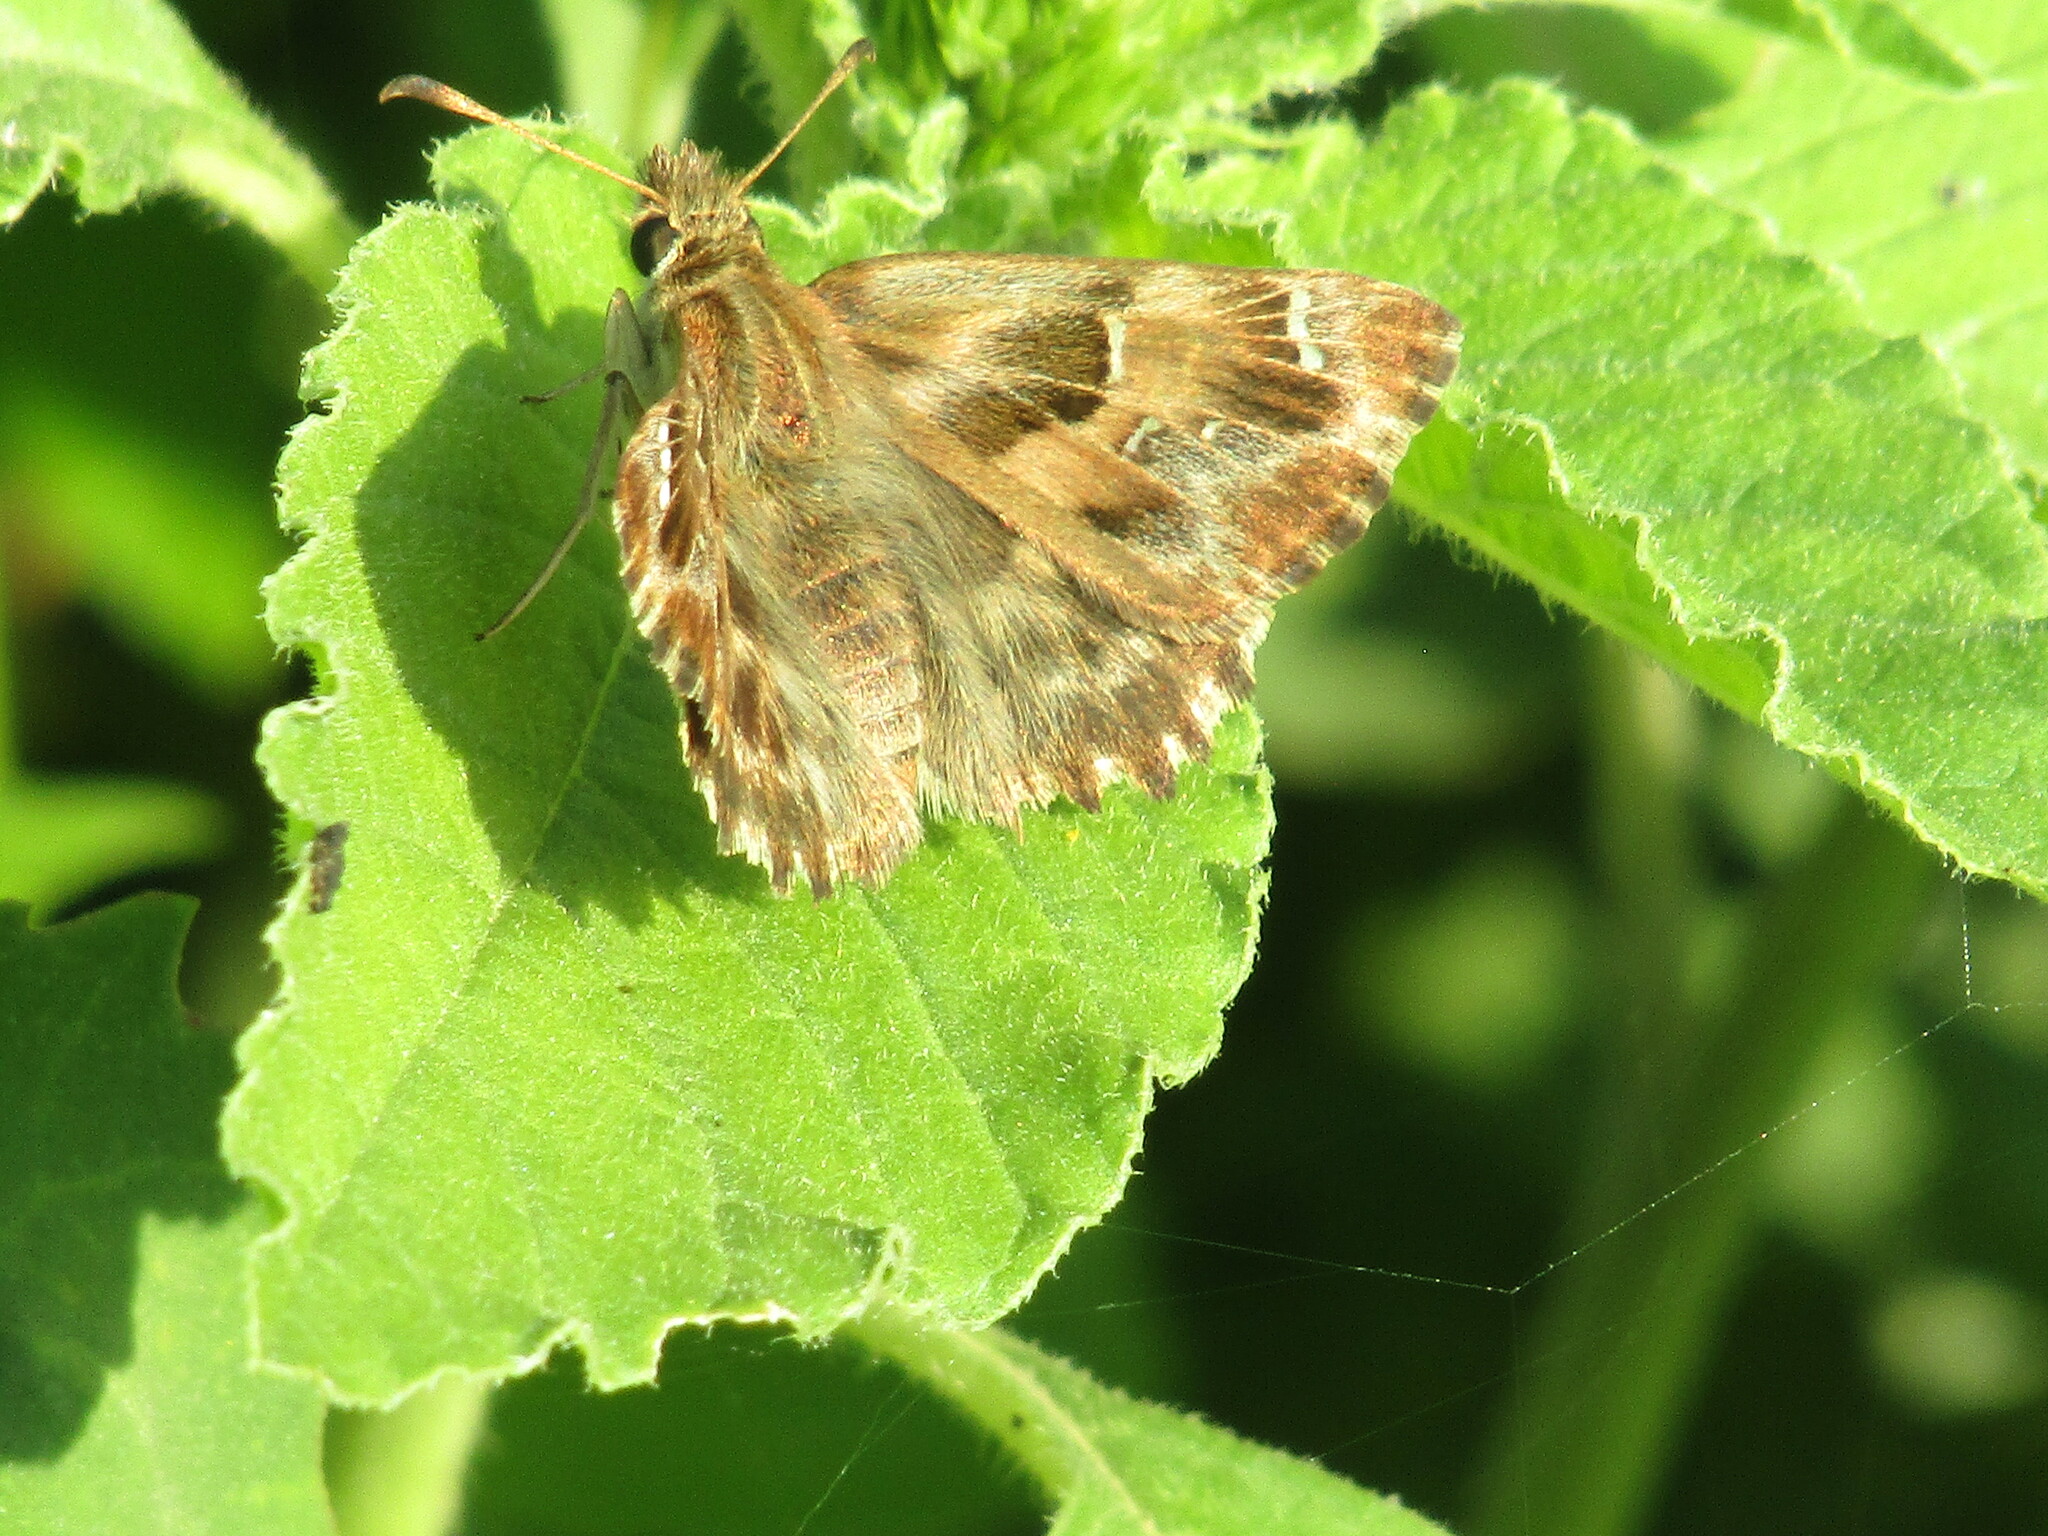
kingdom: Animalia
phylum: Arthropoda
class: Insecta
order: Lepidoptera
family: Hesperiidae
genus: Carcharodus
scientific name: Carcharodus alceae
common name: Mallow skipper
